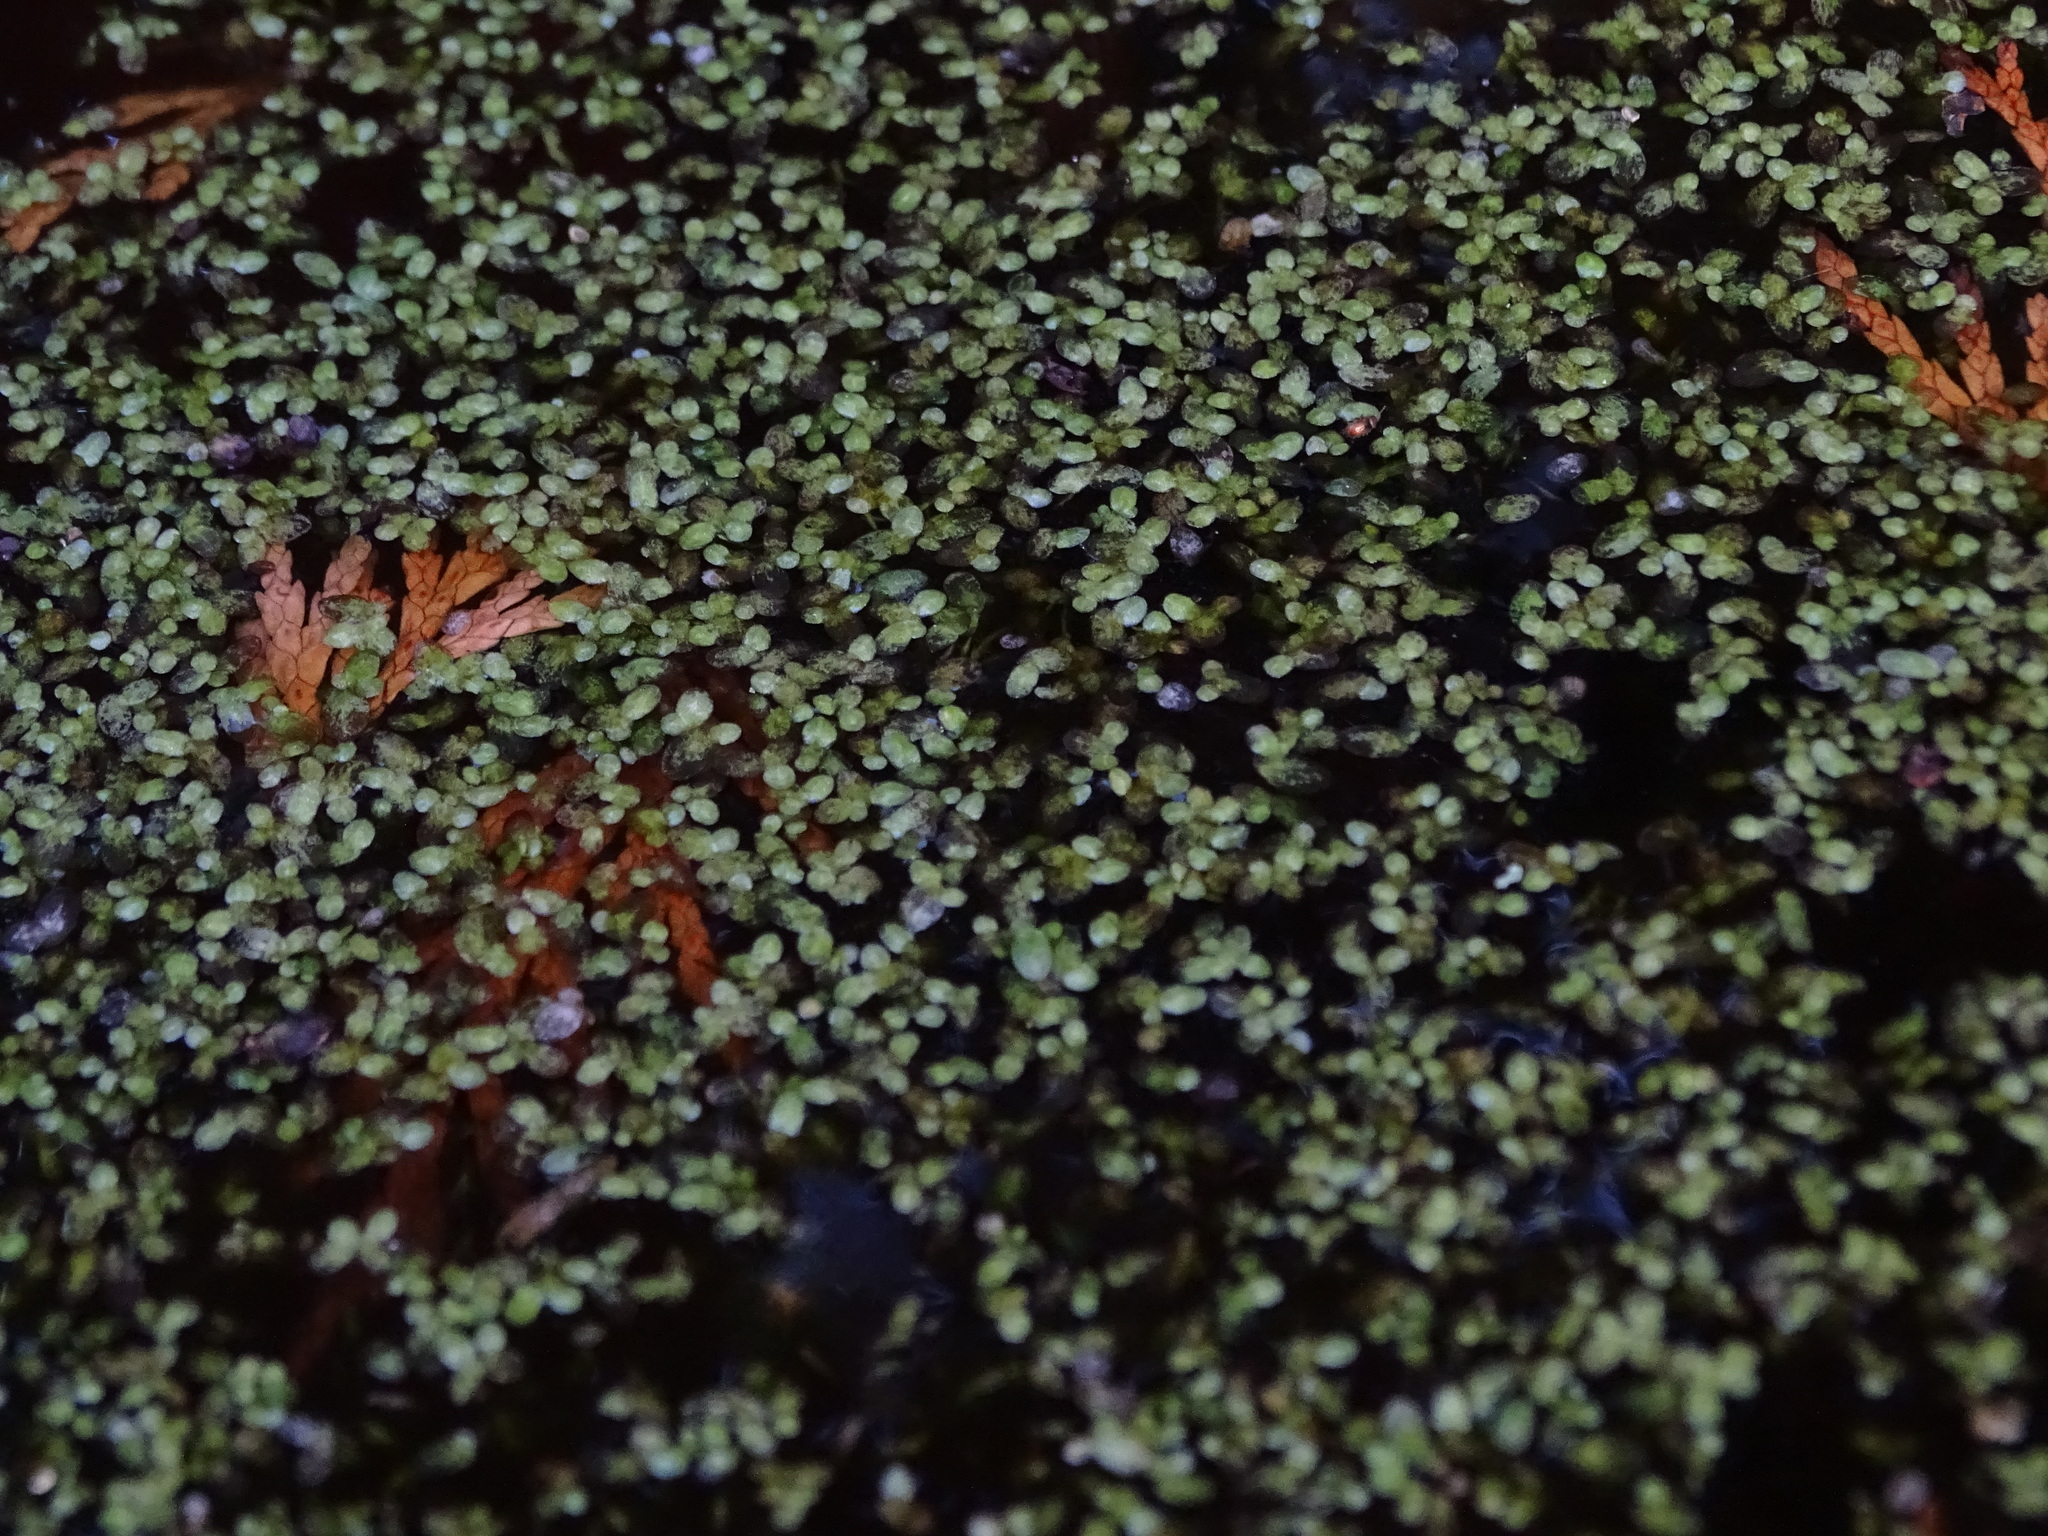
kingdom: Plantae
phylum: Tracheophyta
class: Liliopsida
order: Alismatales
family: Araceae
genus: Spirodela
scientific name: Spirodela polyrhiza
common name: Great duckweed
